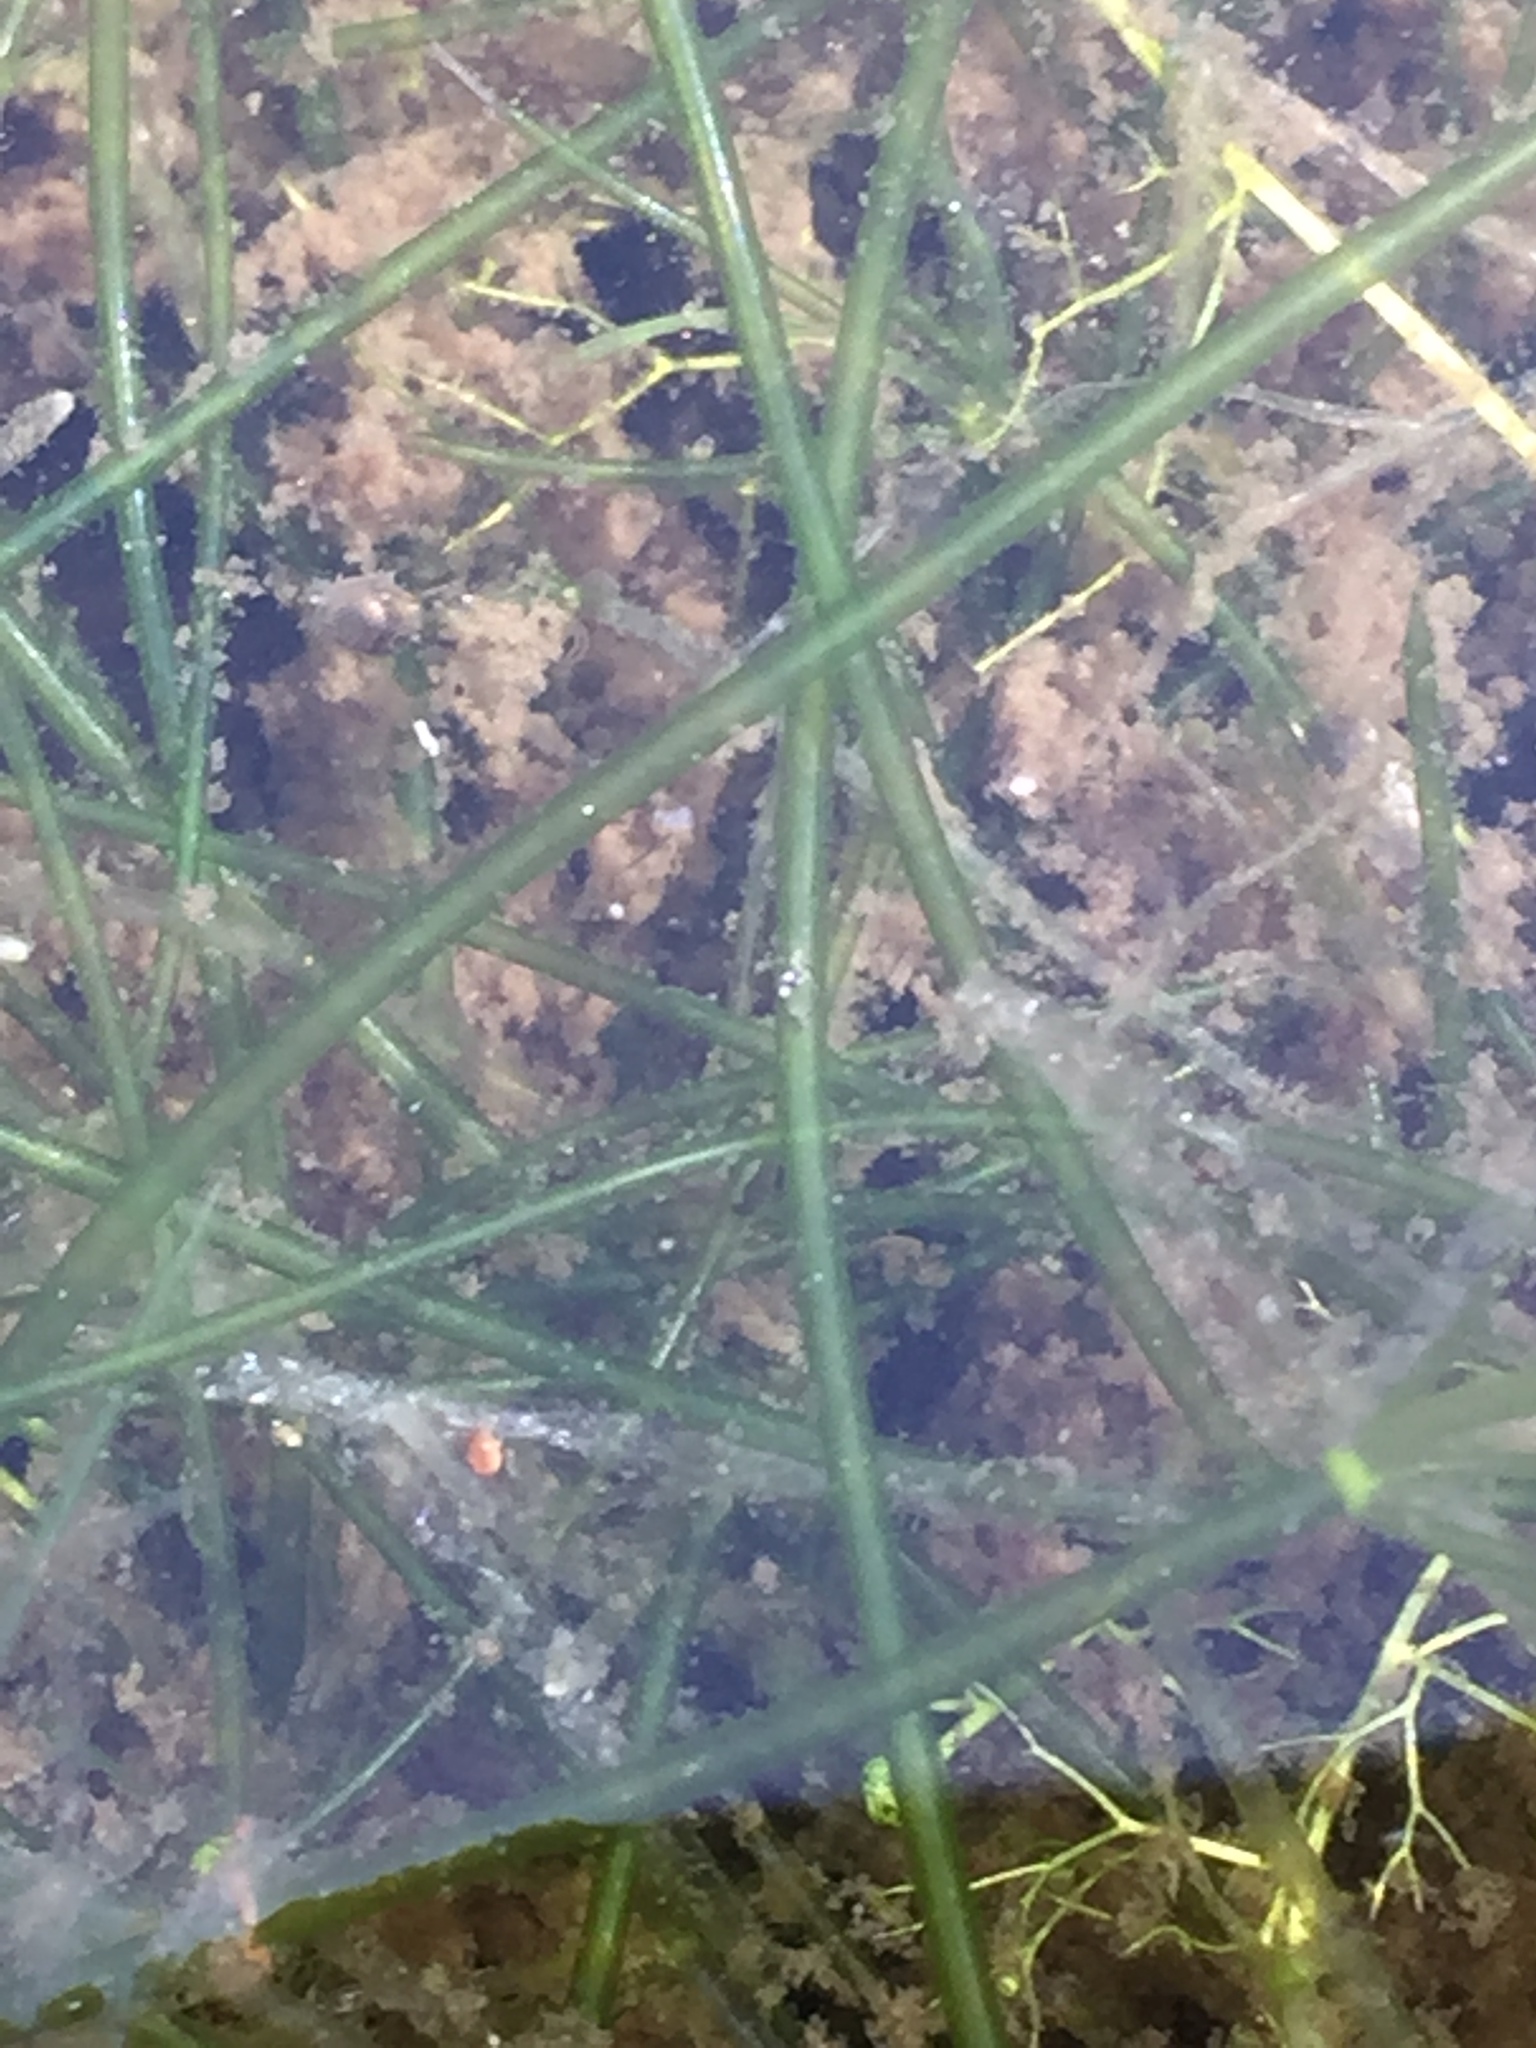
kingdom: Plantae
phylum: Charophyta
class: Charophyceae
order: Charales
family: Characeae
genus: Nitella
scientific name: Nitella translucens
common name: Translucent stonewort
